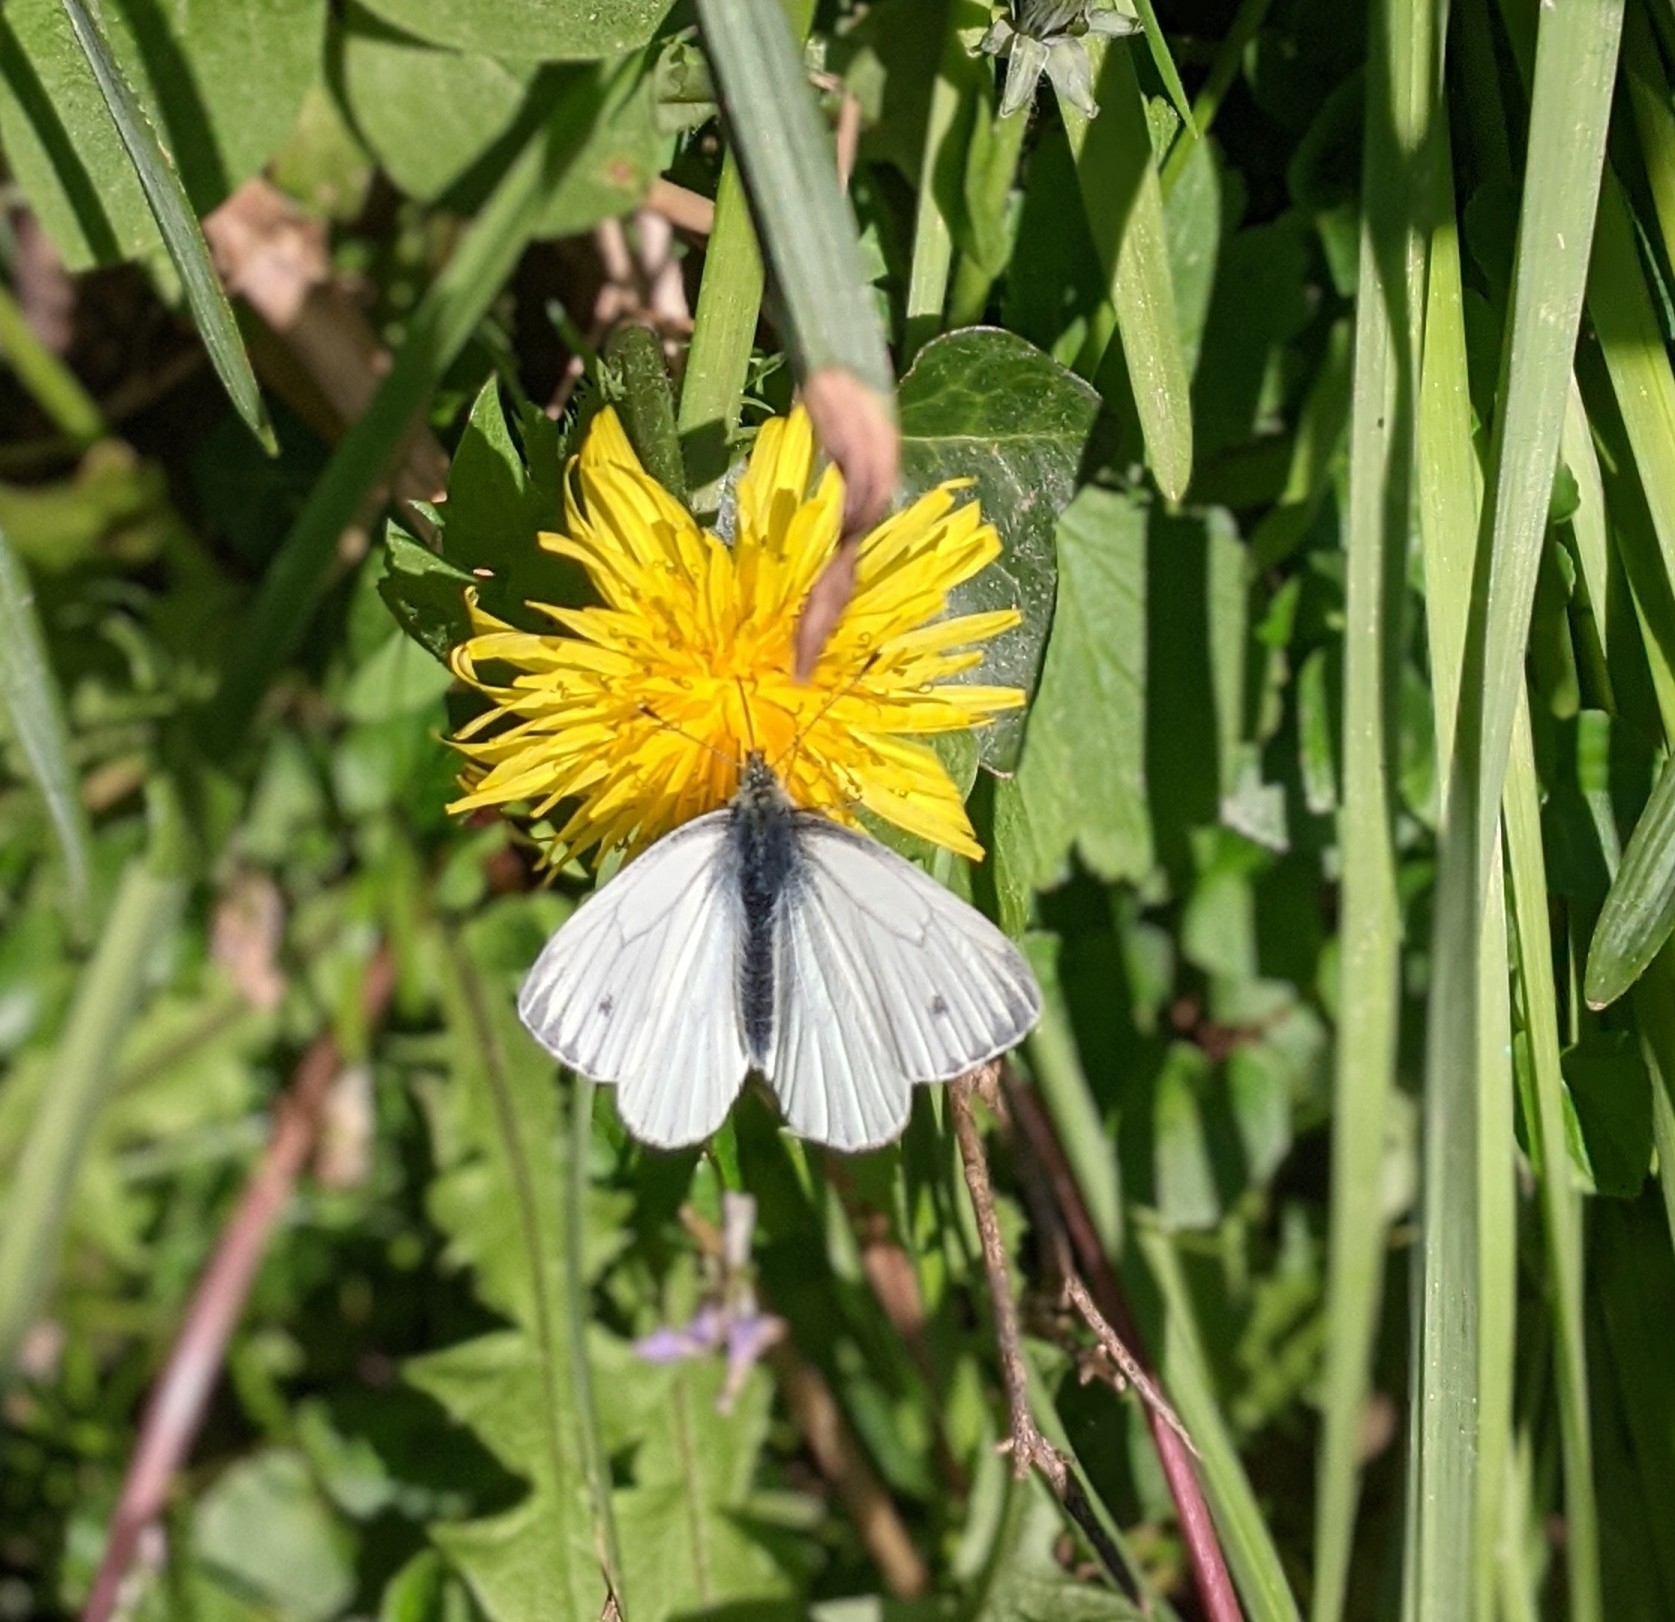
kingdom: Animalia
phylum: Arthropoda
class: Insecta
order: Lepidoptera
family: Pieridae
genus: Pieris
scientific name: Pieris napi
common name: Green-veined white
